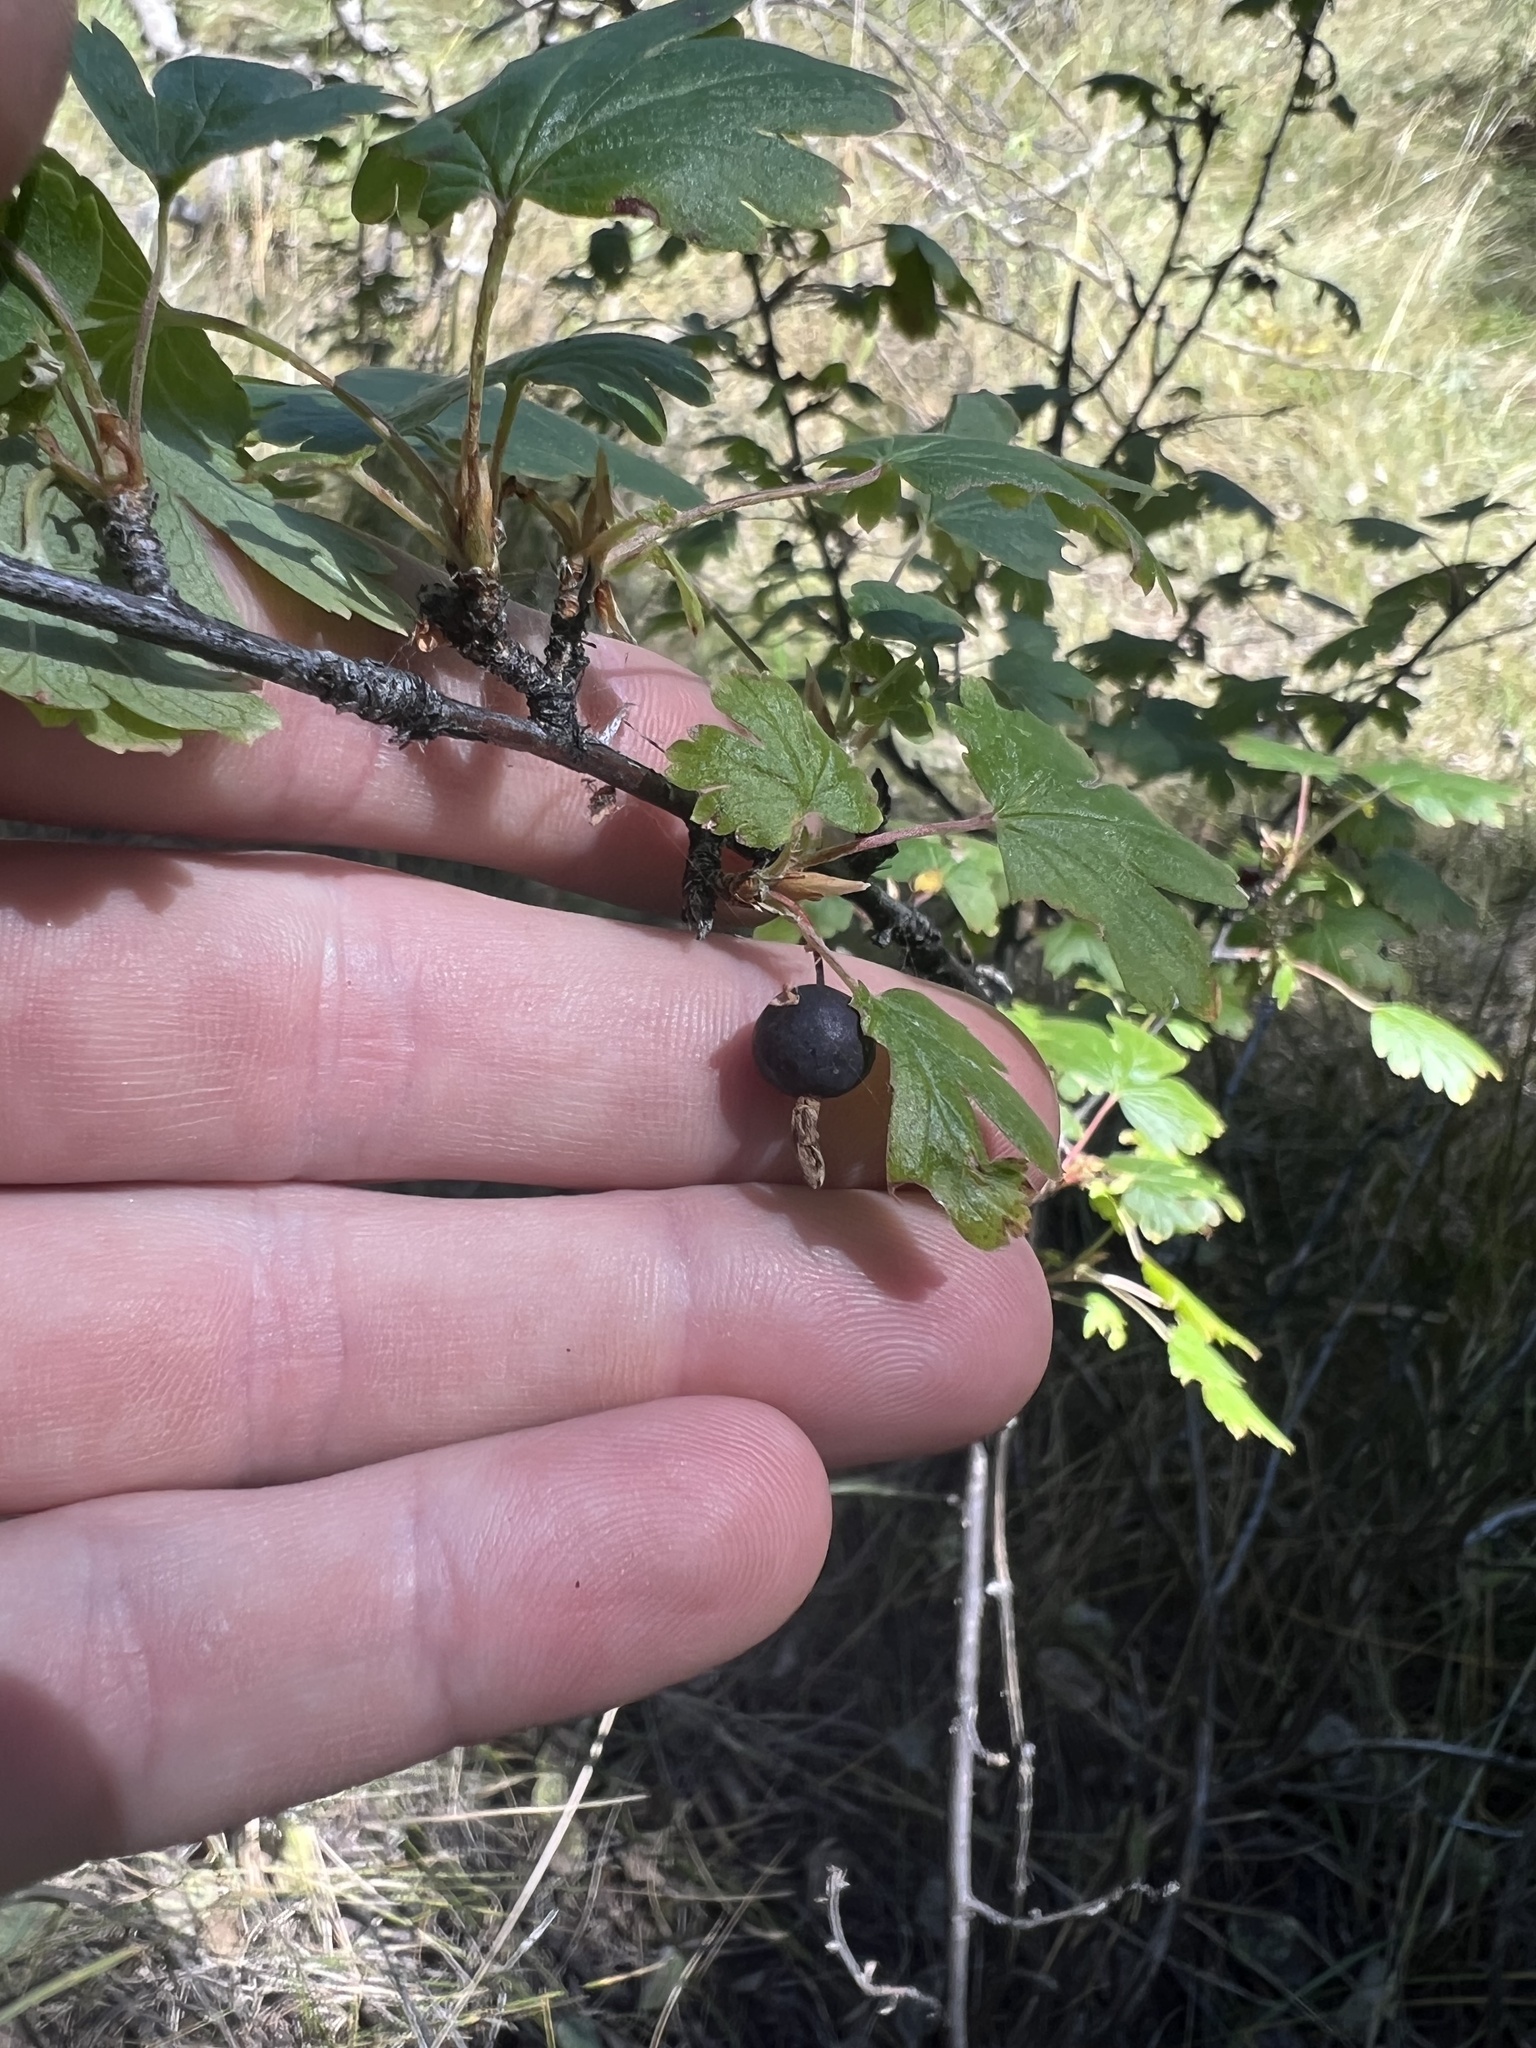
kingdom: Plantae
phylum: Tracheophyta
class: Magnoliopsida
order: Saxifragales
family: Grossulariaceae
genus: Ribes
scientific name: Ribes inerme
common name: White-stem gooseberry
